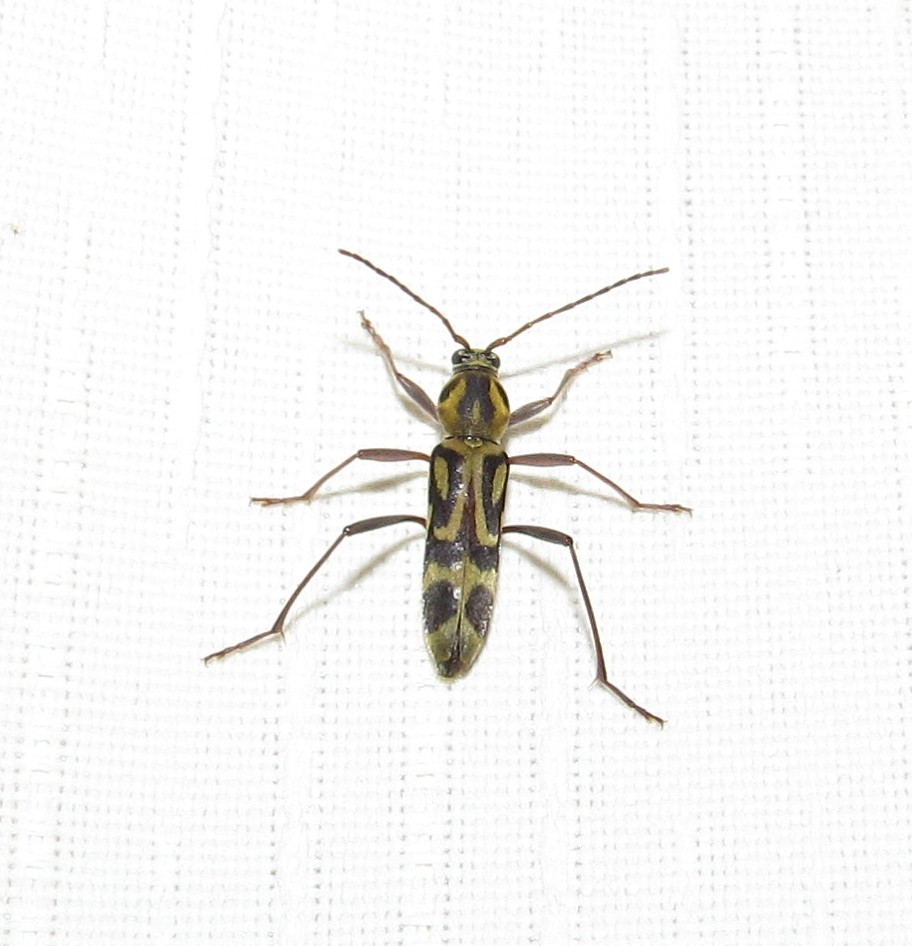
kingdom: Animalia
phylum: Arthropoda
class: Insecta
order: Coleoptera
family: Cerambycidae
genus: Chlorophorus
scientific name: Chlorophorus annularis
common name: Bamboo longhorn beetle
